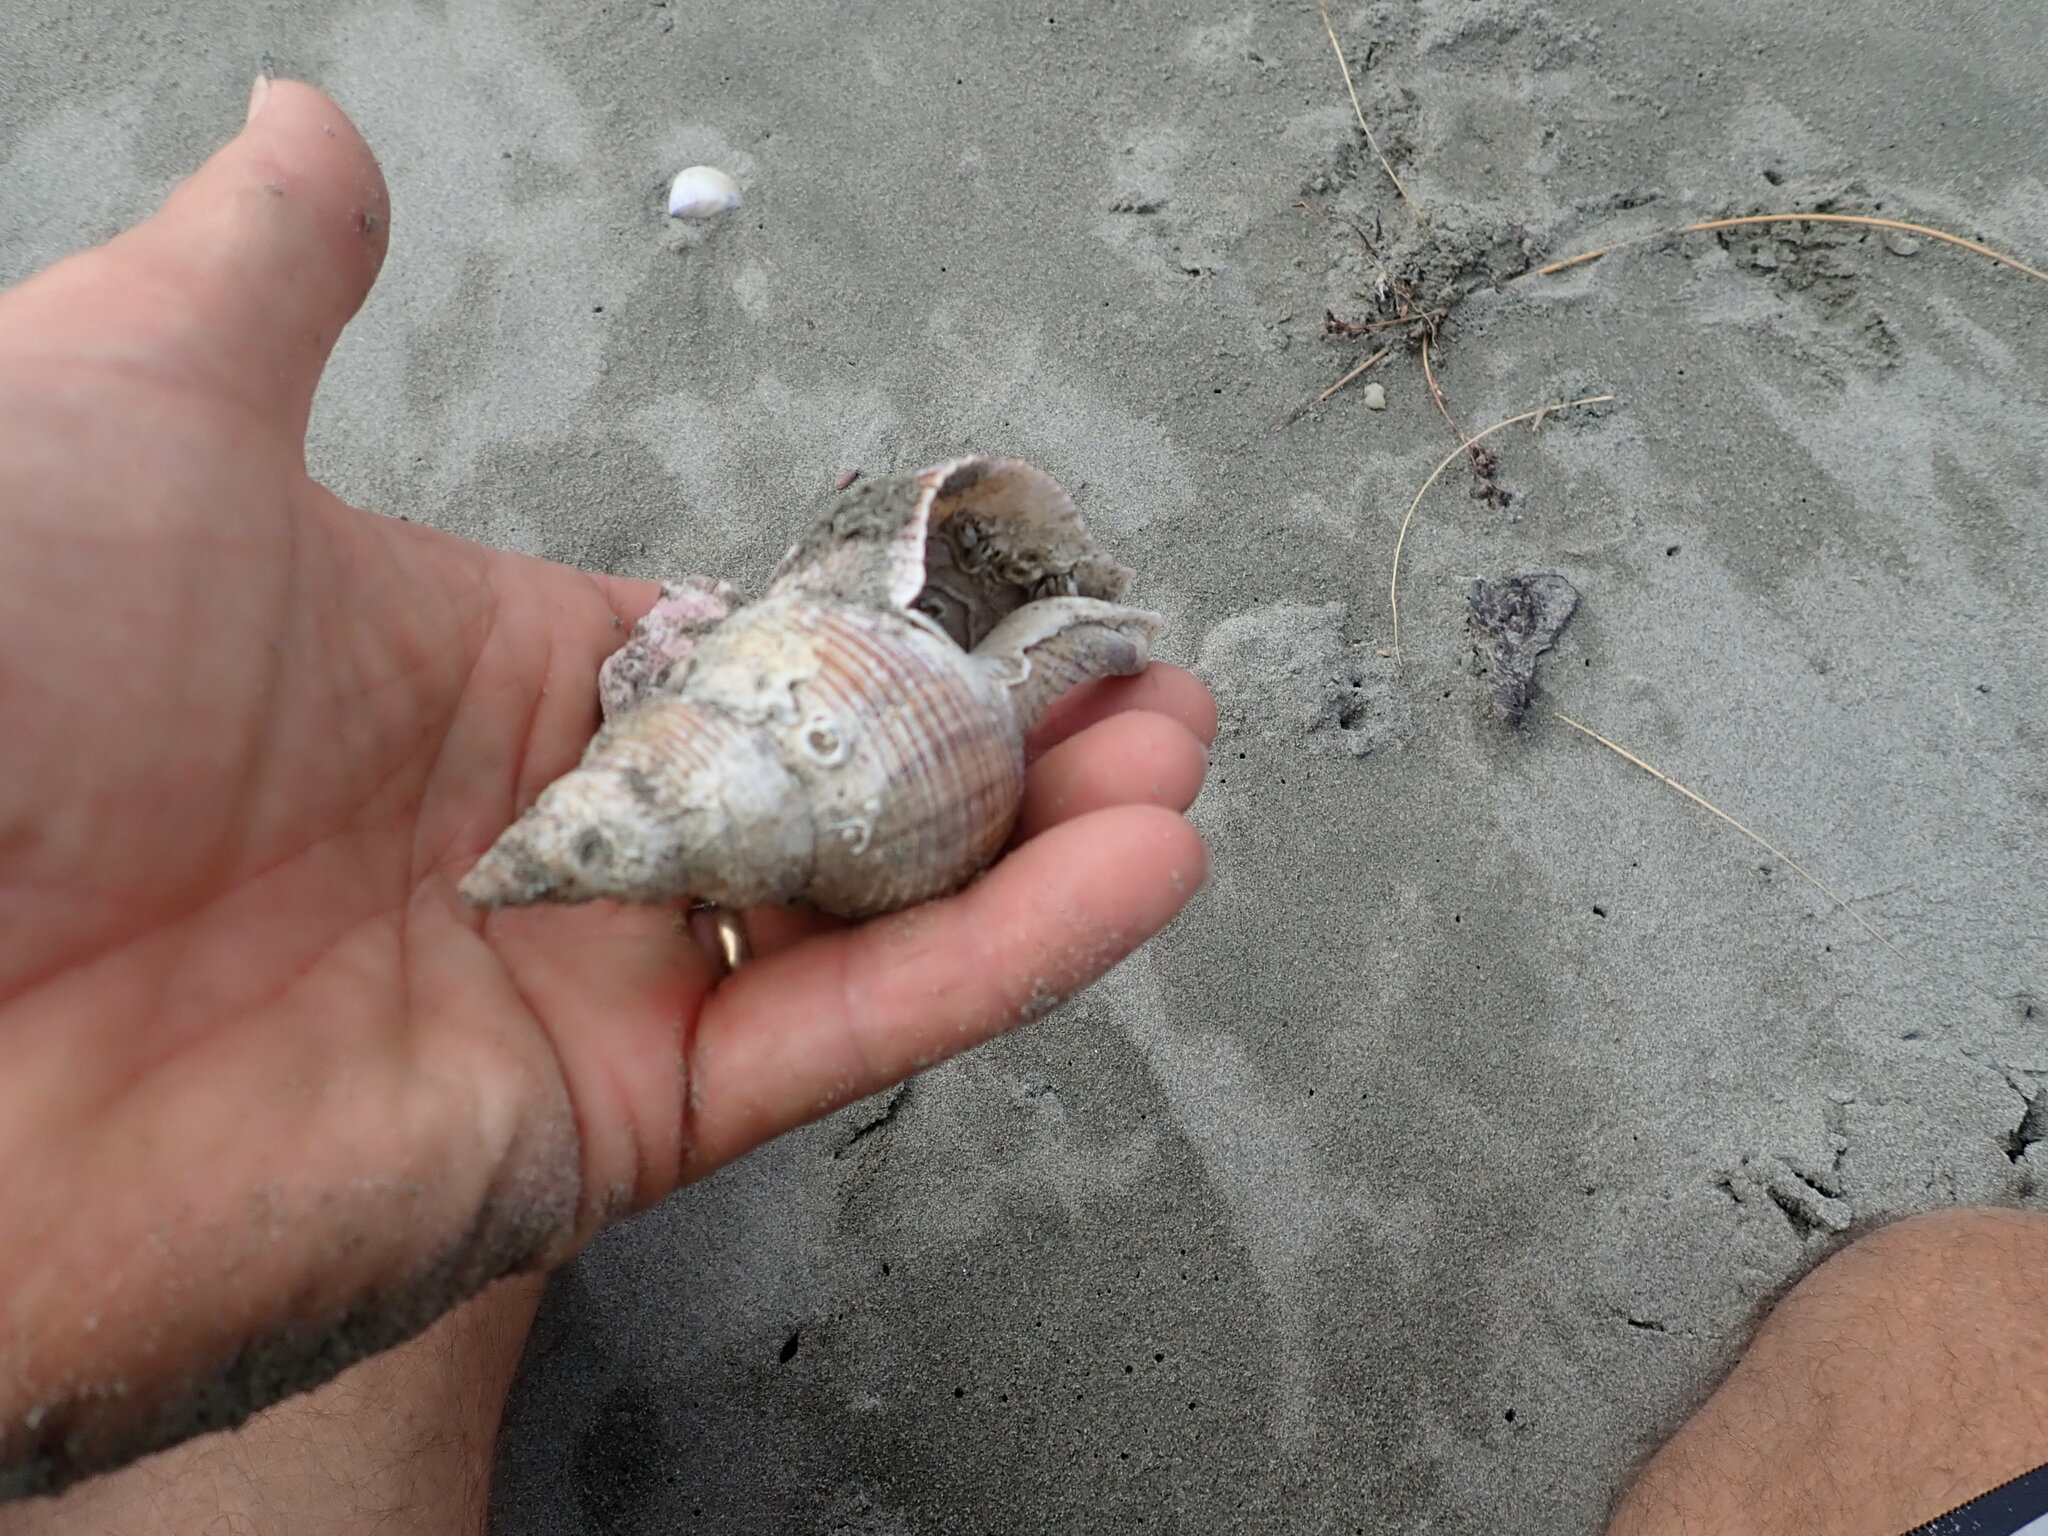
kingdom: Animalia
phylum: Arthropoda
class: Maxillopoda
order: Sessilia
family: Balanidae
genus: Notomegabalanus
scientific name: Notomegabalanus decorus
